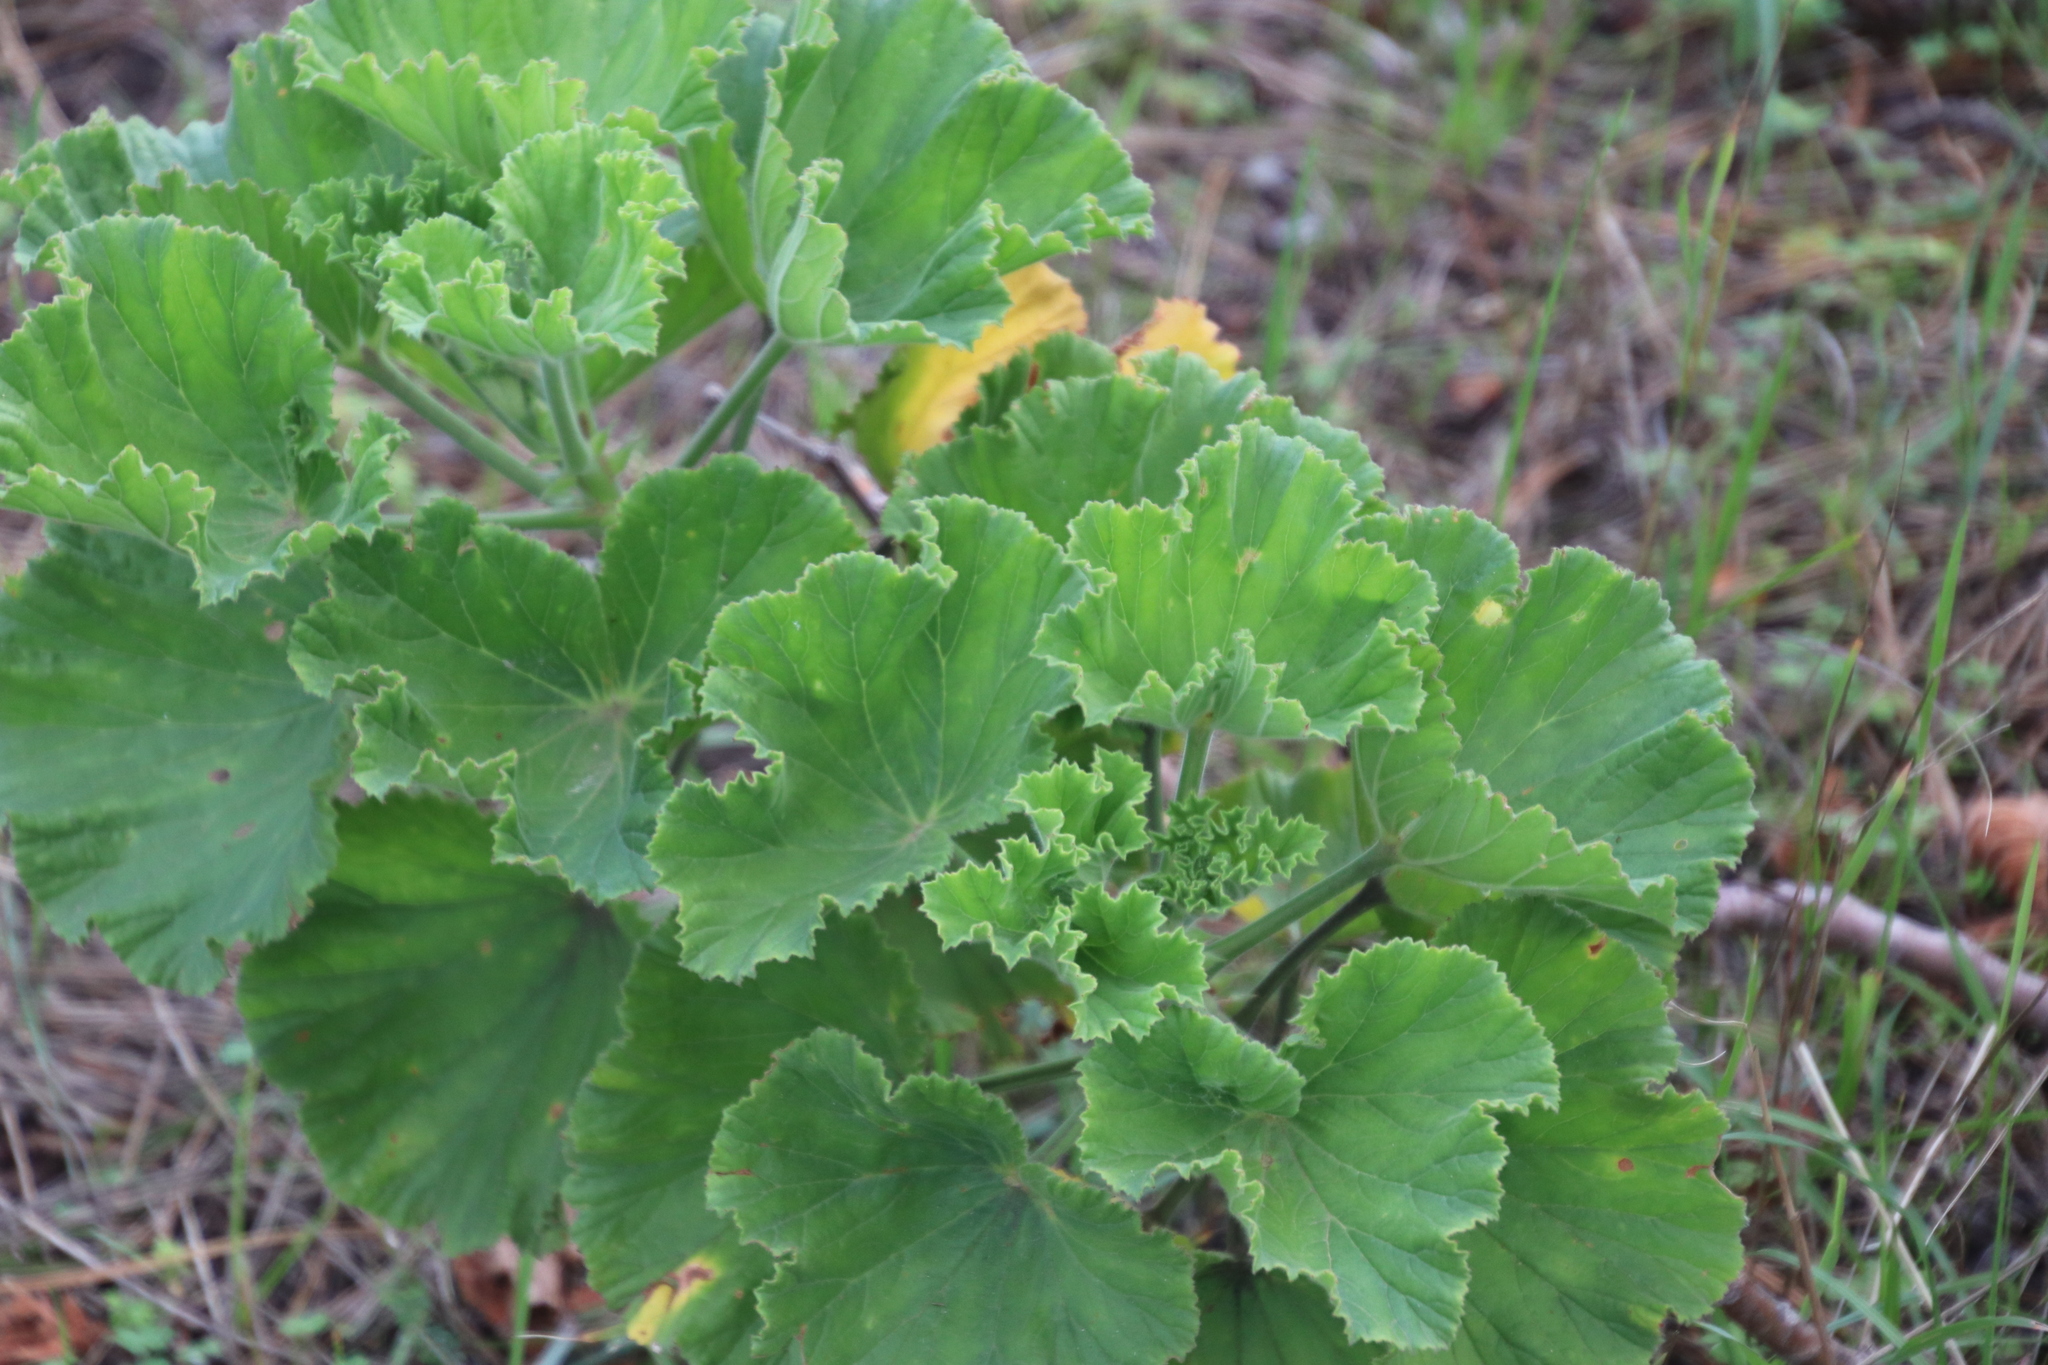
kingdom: Plantae
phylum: Tracheophyta
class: Magnoliopsida
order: Geraniales
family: Geraniaceae
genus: Pelargonium
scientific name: Pelargonium cucullatum
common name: Tree pelargonium
